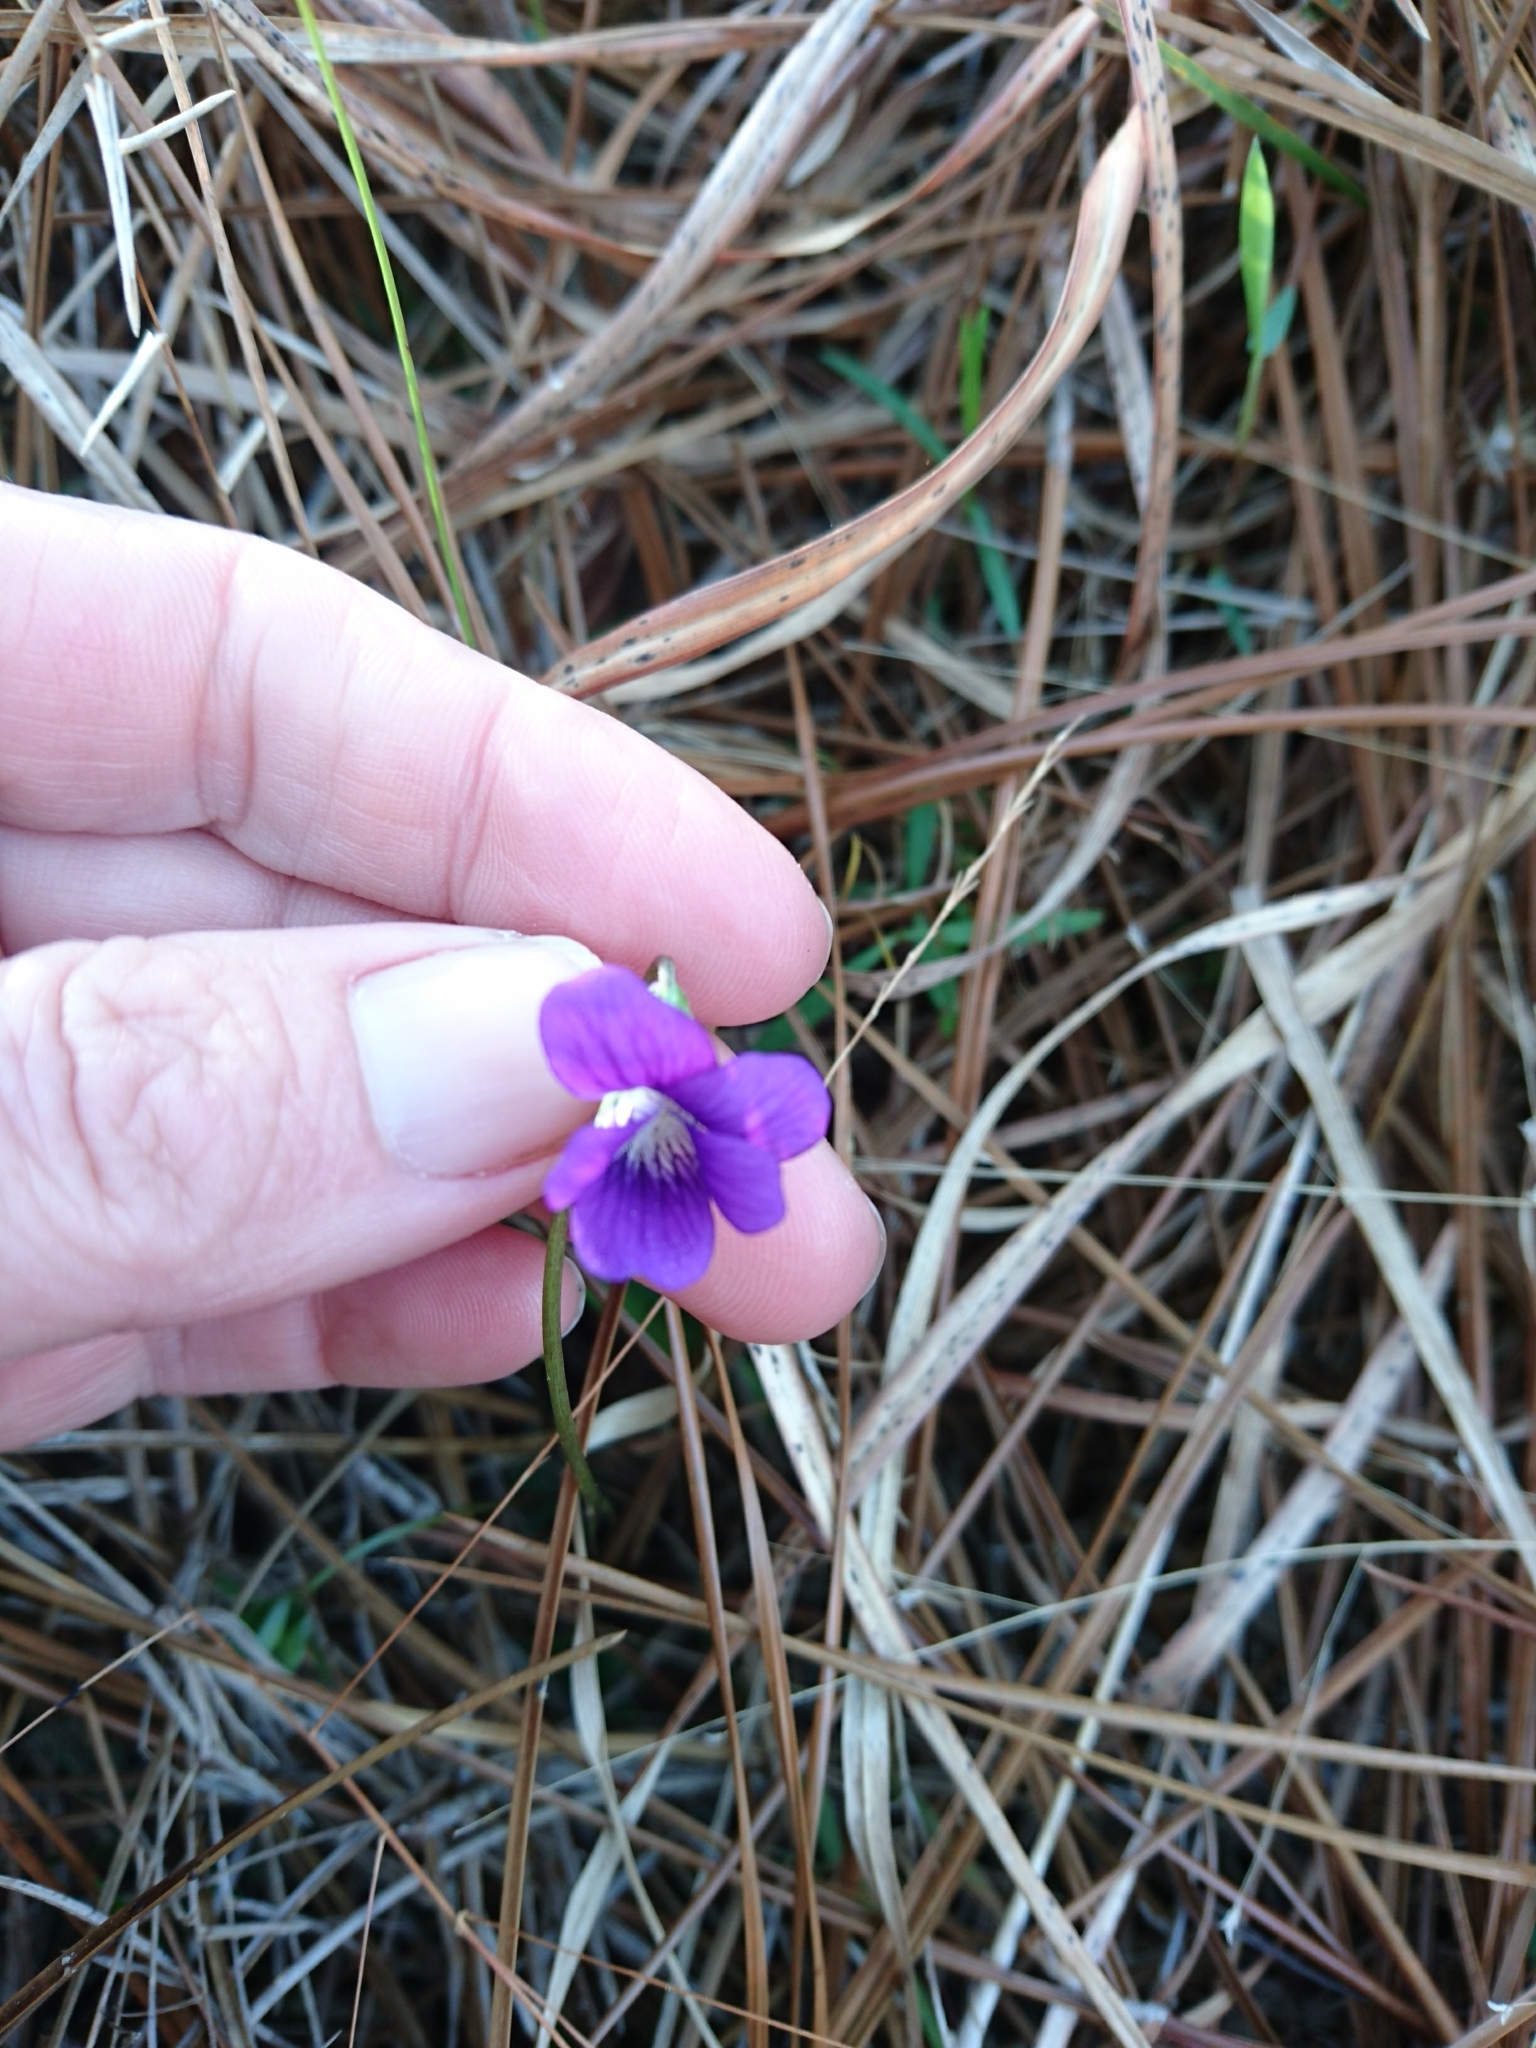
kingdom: Plantae
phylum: Tracheophyta
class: Magnoliopsida
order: Malpighiales
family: Violaceae
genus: Viola
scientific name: Viola septemloba
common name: Southern coast violet
